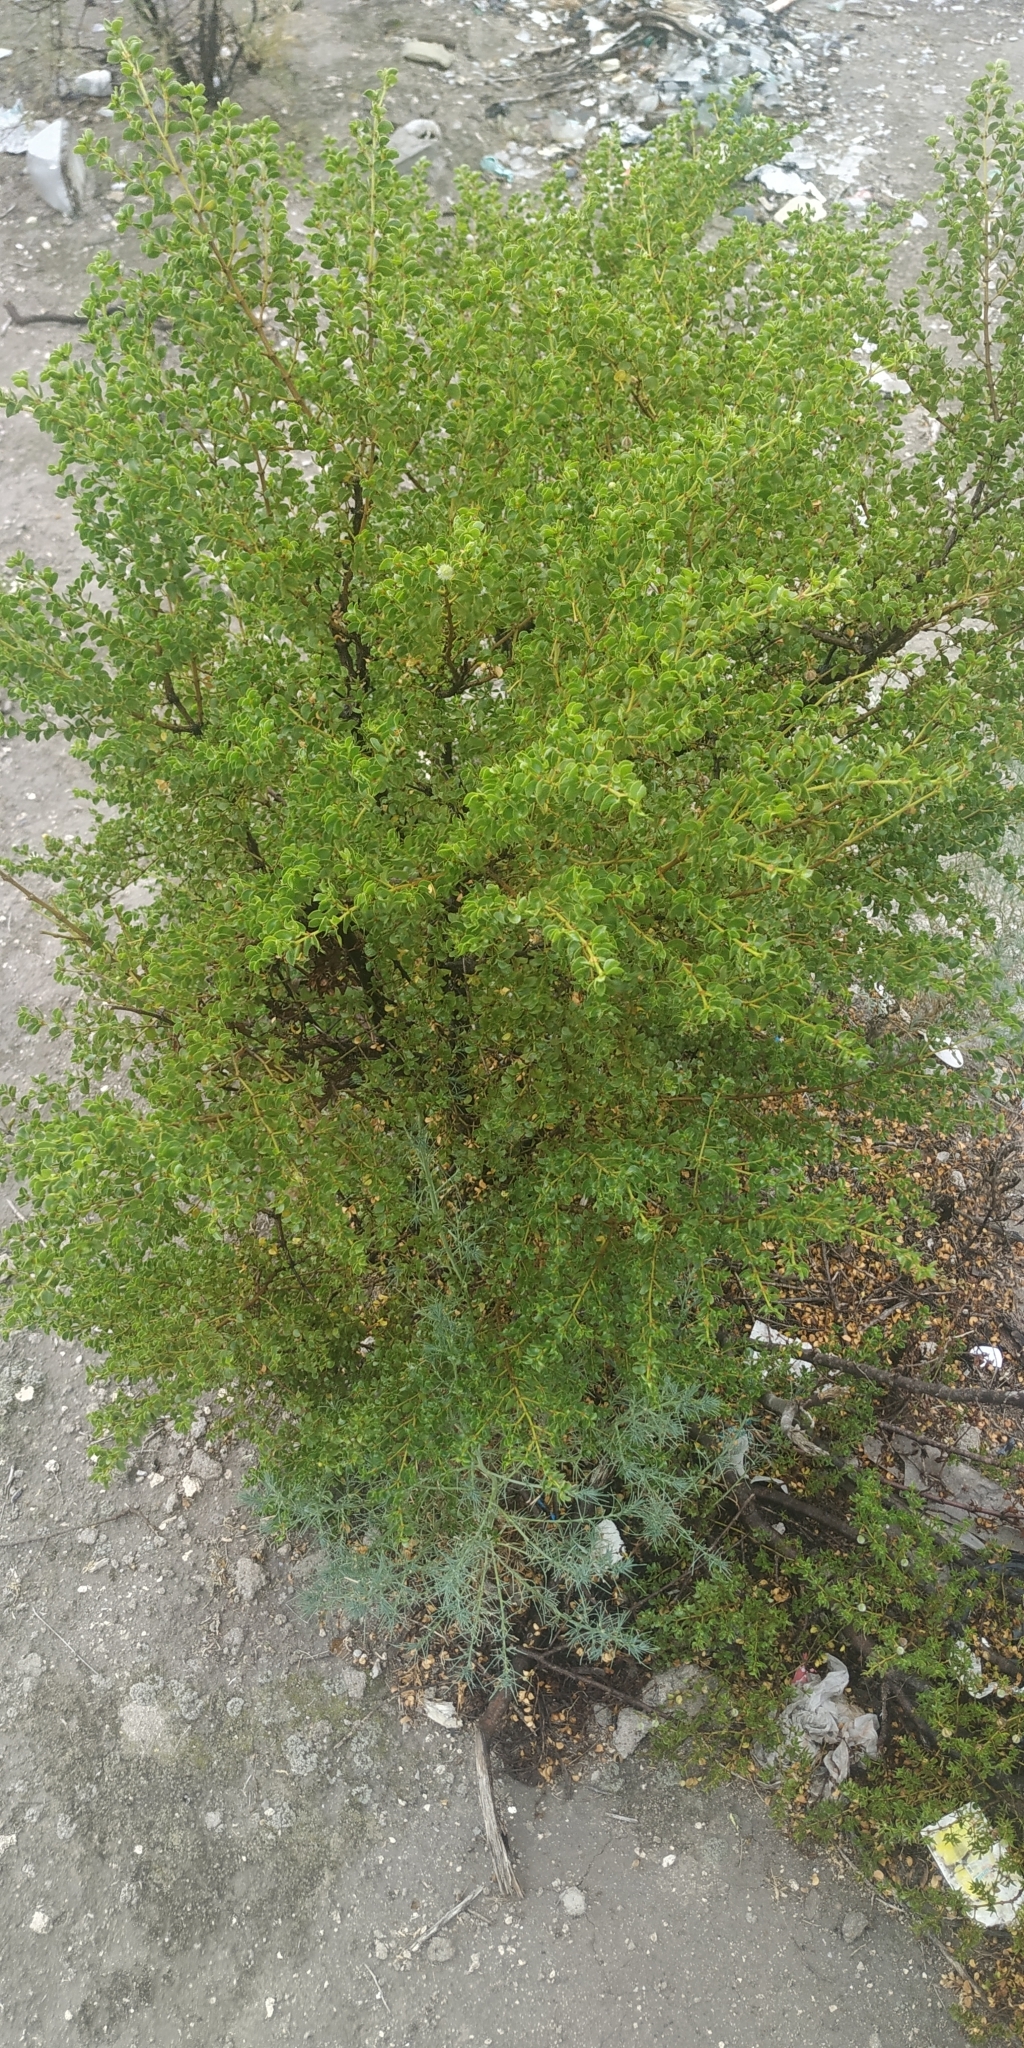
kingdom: Plantae
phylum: Tracheophyta
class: Magnoliopsida
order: Zygophyllales
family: Zygophyllaceae
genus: Larrea
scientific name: Larrea tridentata
